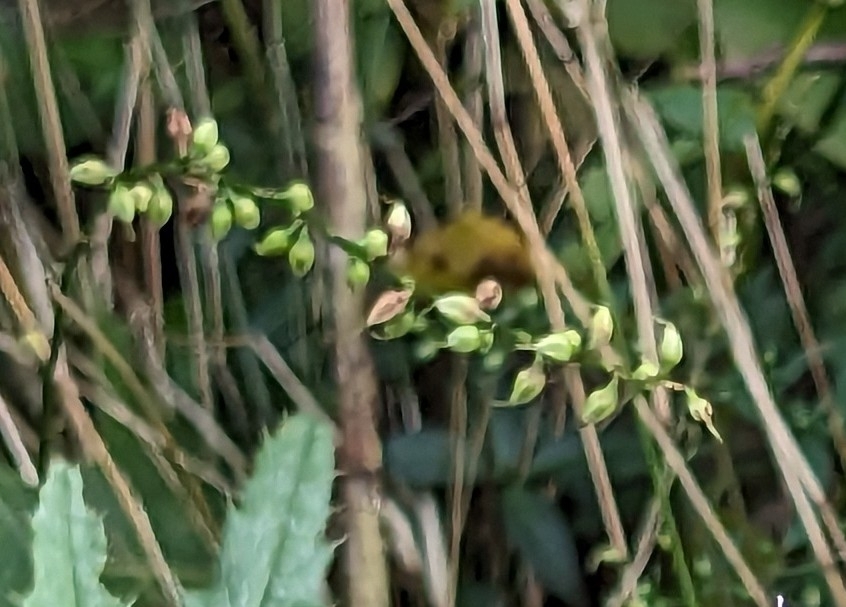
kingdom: Plantae
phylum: Tracheophyta
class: Magnoliopsida
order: Caryophyllales
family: Polygonaceae
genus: Persicaria
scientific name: Persicaria virginiana
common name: Jumpseed
